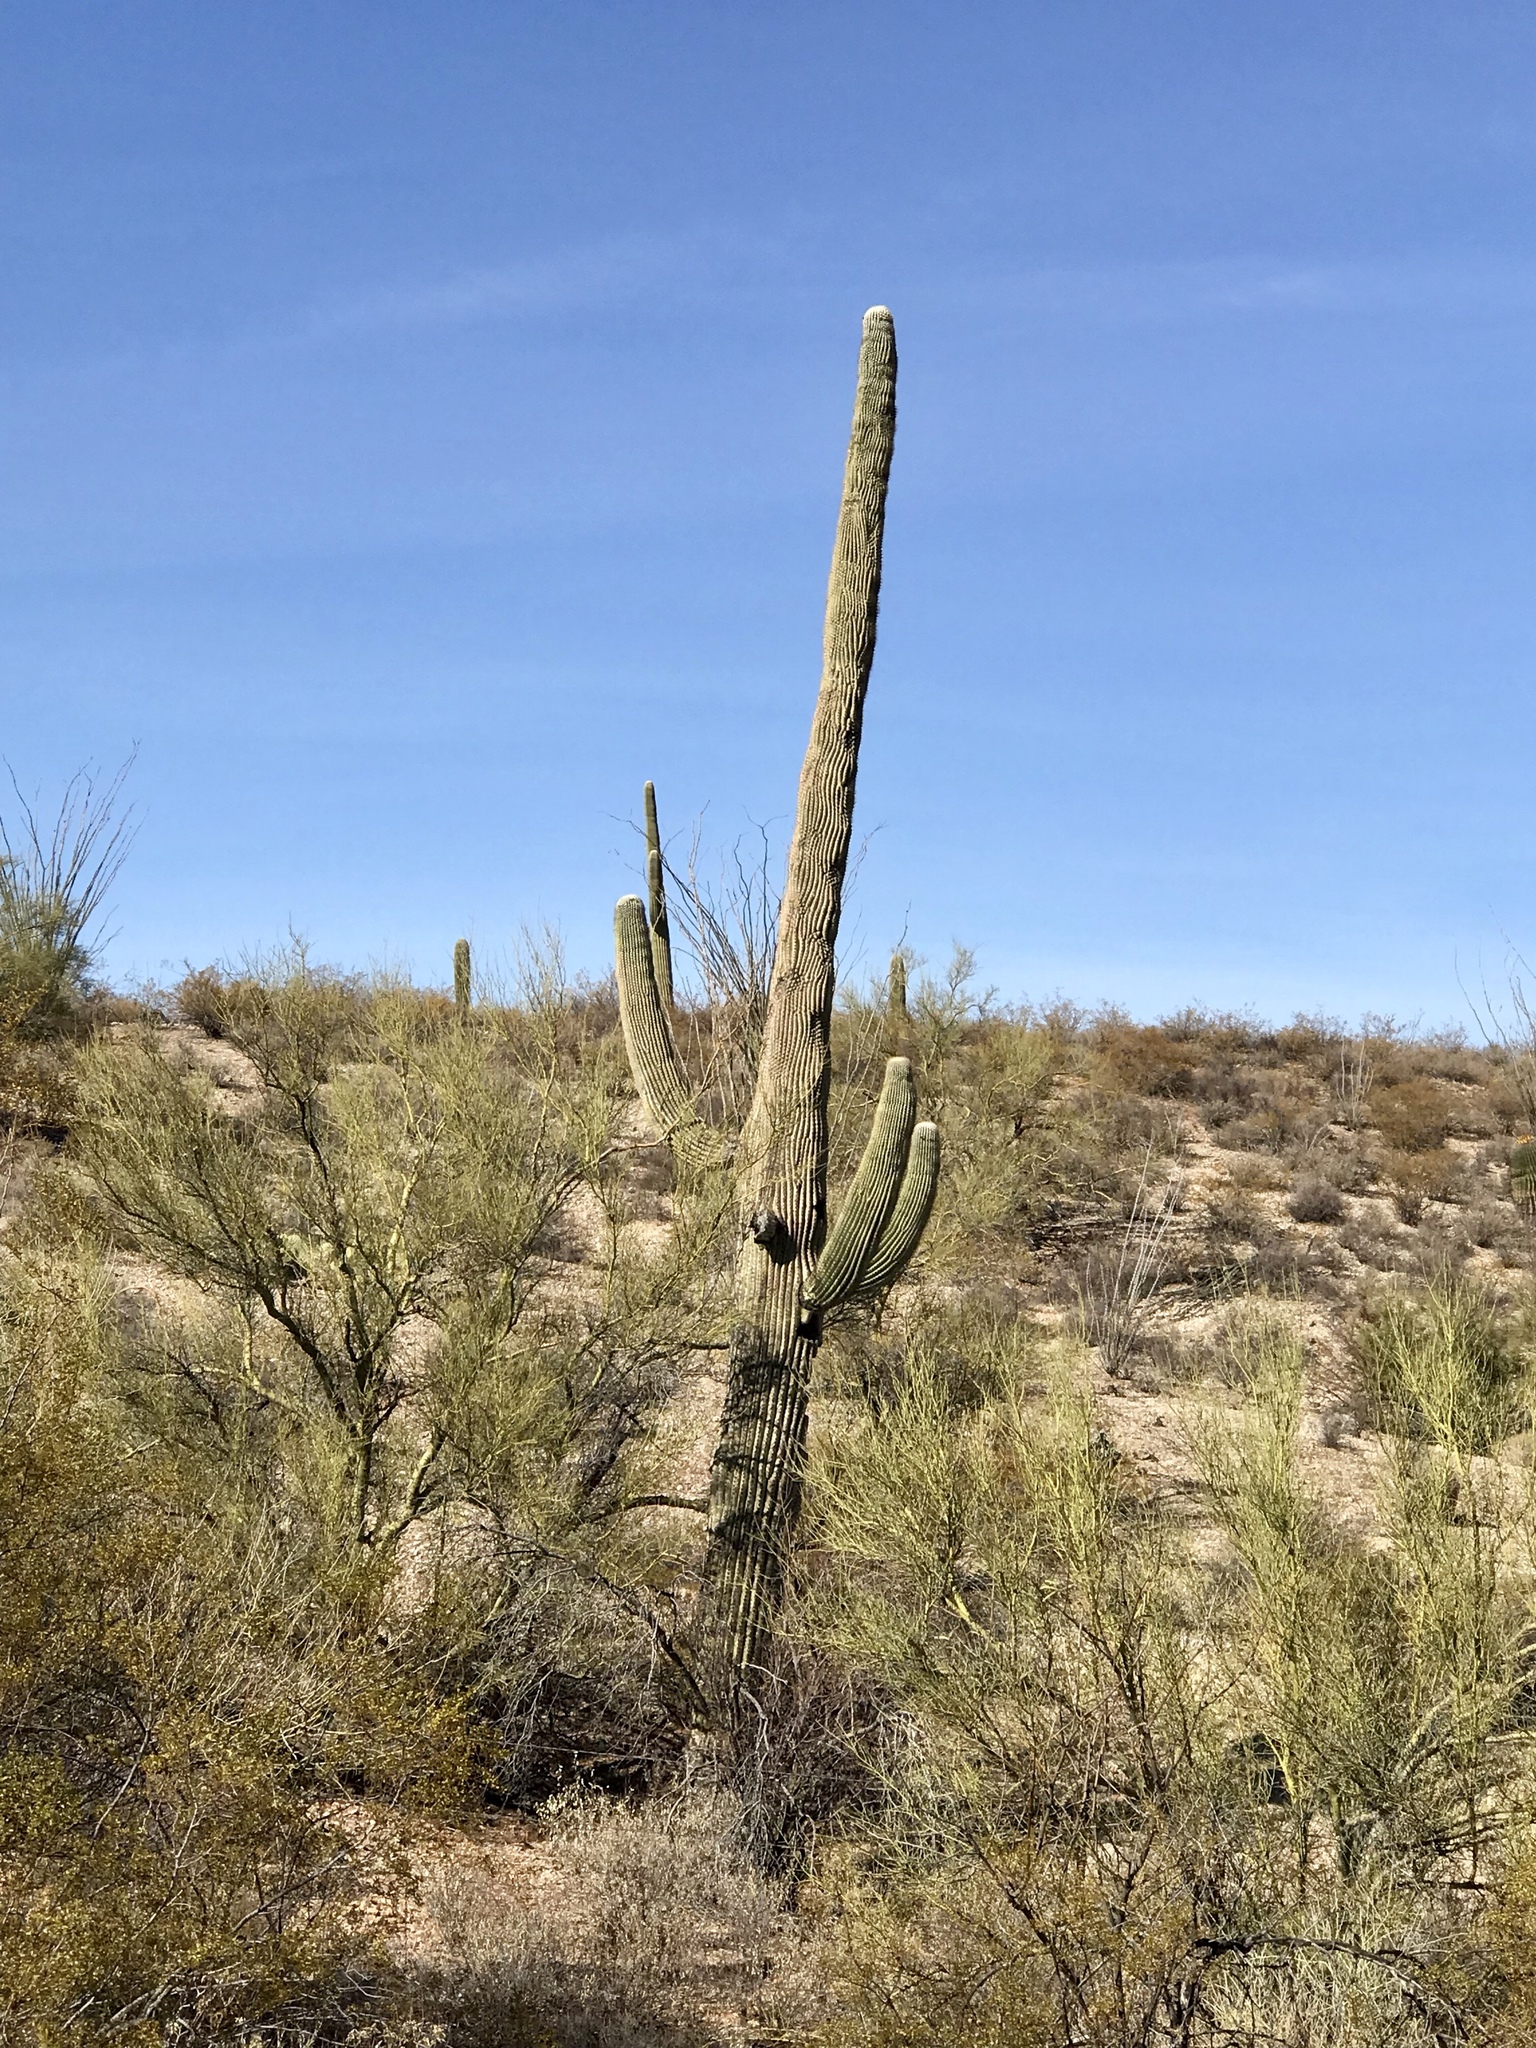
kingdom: Plantae
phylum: Tracheophyta
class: Magnoliopsida
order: Caryophyllales
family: Cactaceae
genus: Carnegiea
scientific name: Carnegiea gigantea
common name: Saguaro
